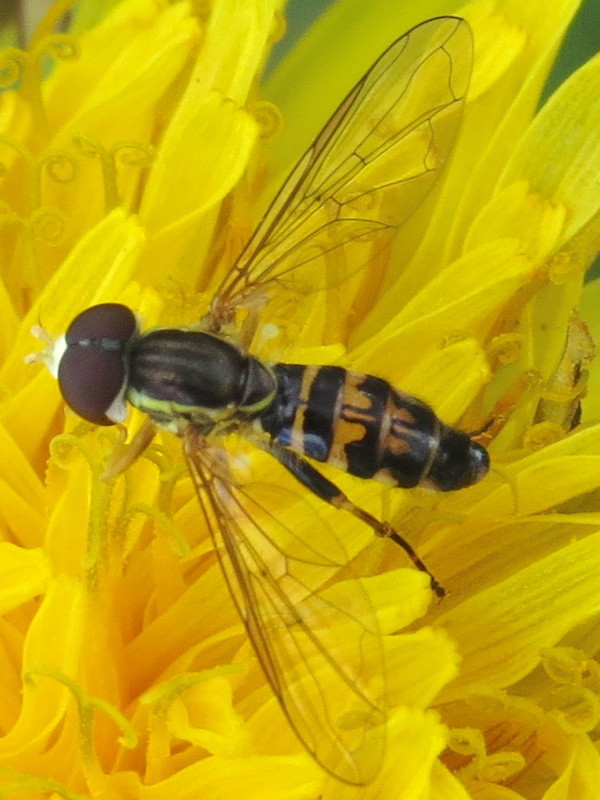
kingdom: Animalia
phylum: Arthropoda
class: Insecta
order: Diptera
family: Syrphidae
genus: Toxomerus
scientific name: Toxomerus geminatus
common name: Eastern calligrapher
